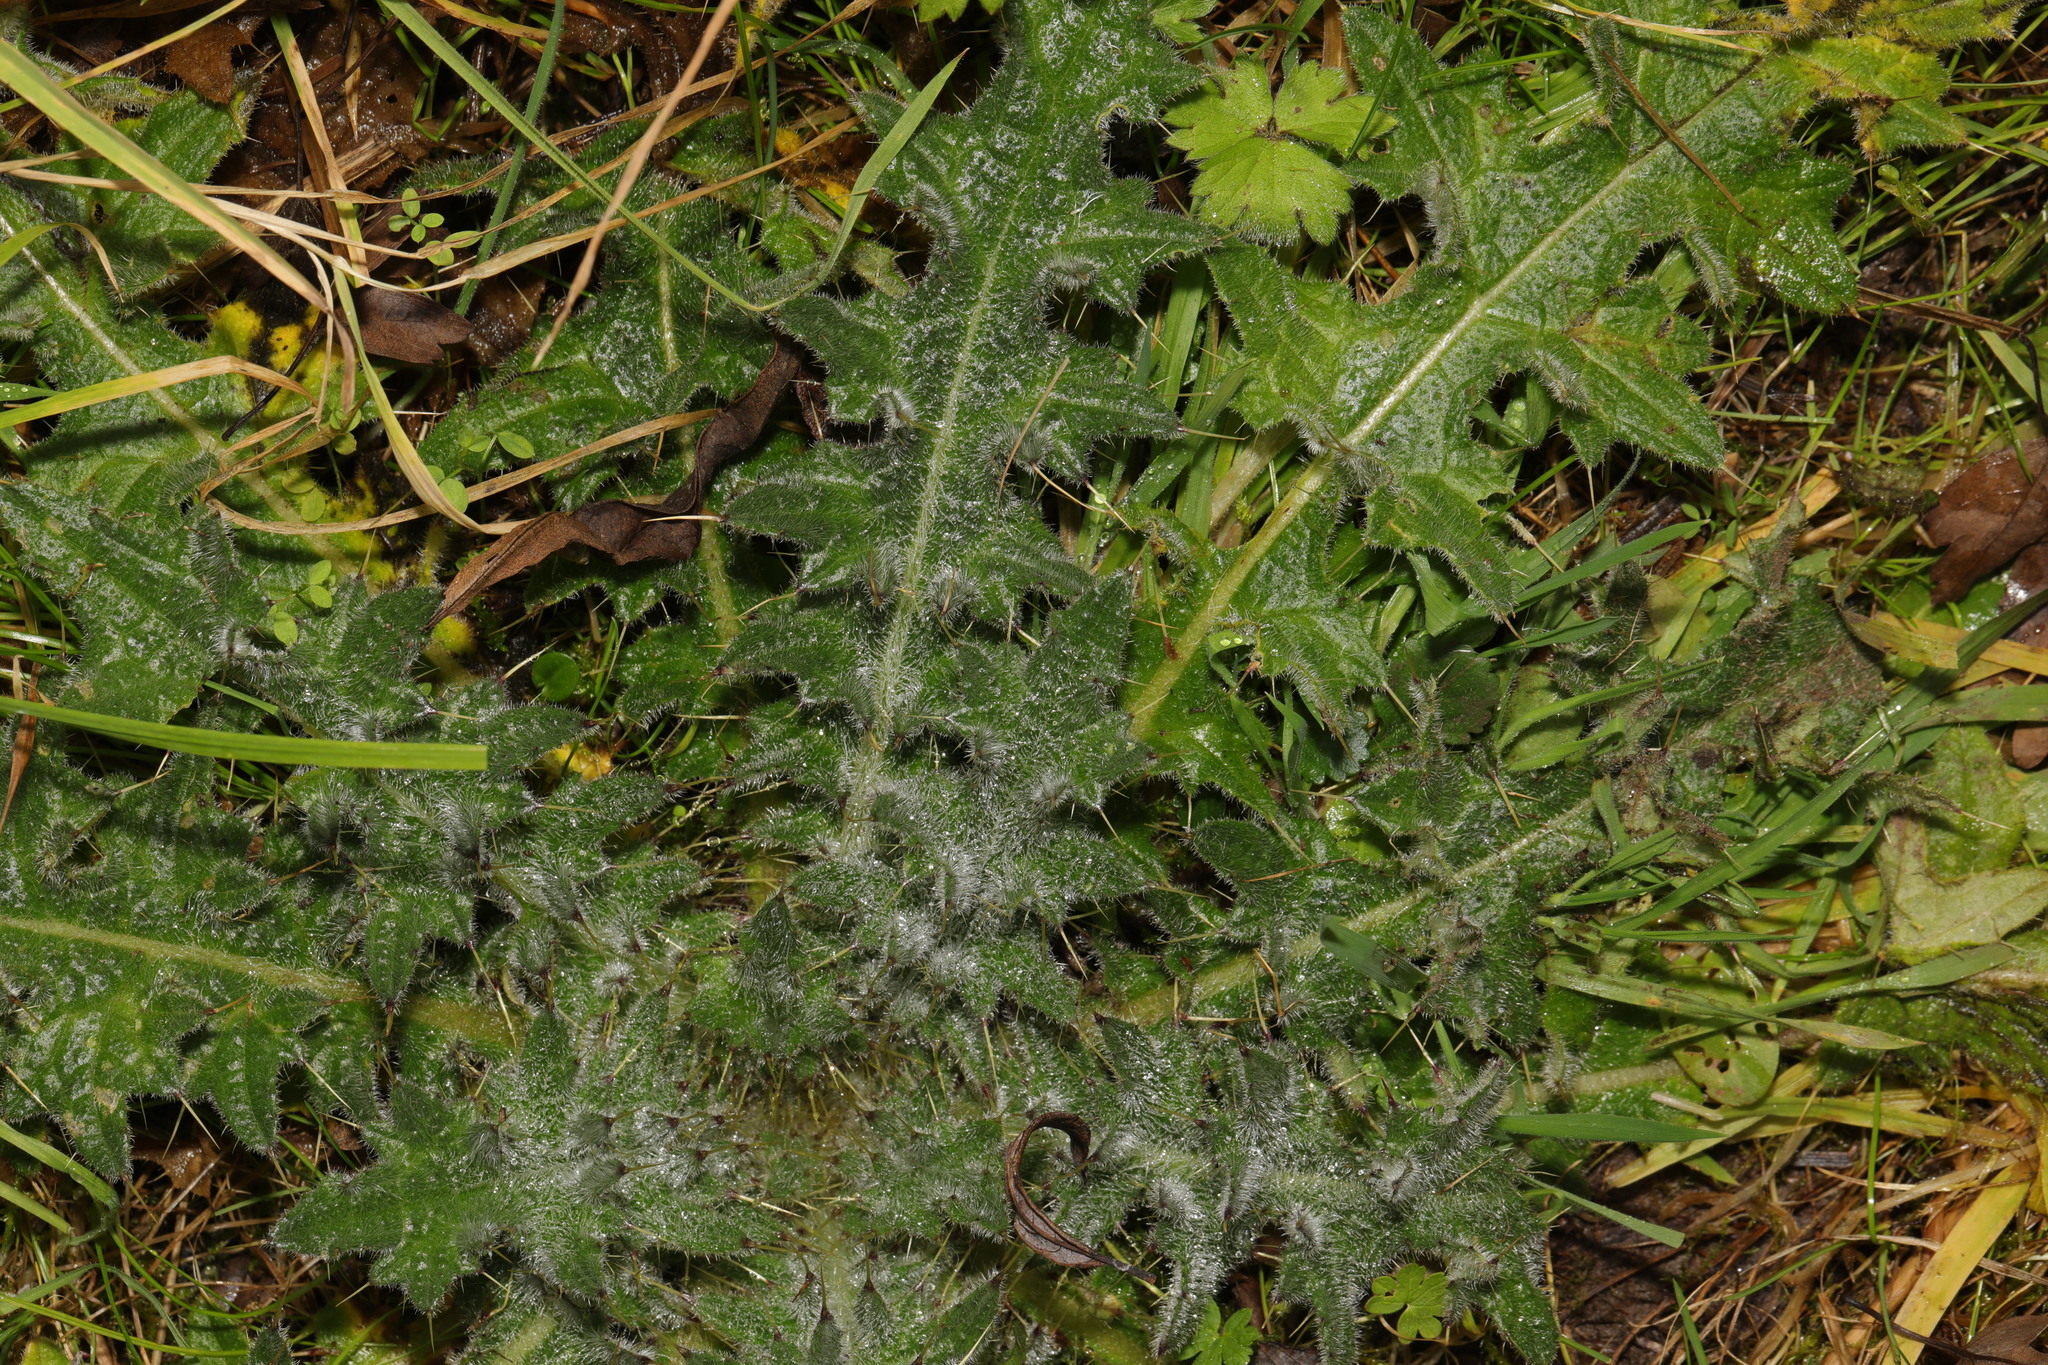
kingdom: Plantae
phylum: Tracheophyta
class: Magnoliopsida
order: Asterales
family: Asteraceae
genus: Cirsium
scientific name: Cirsium vulgare
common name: Bull thistle
